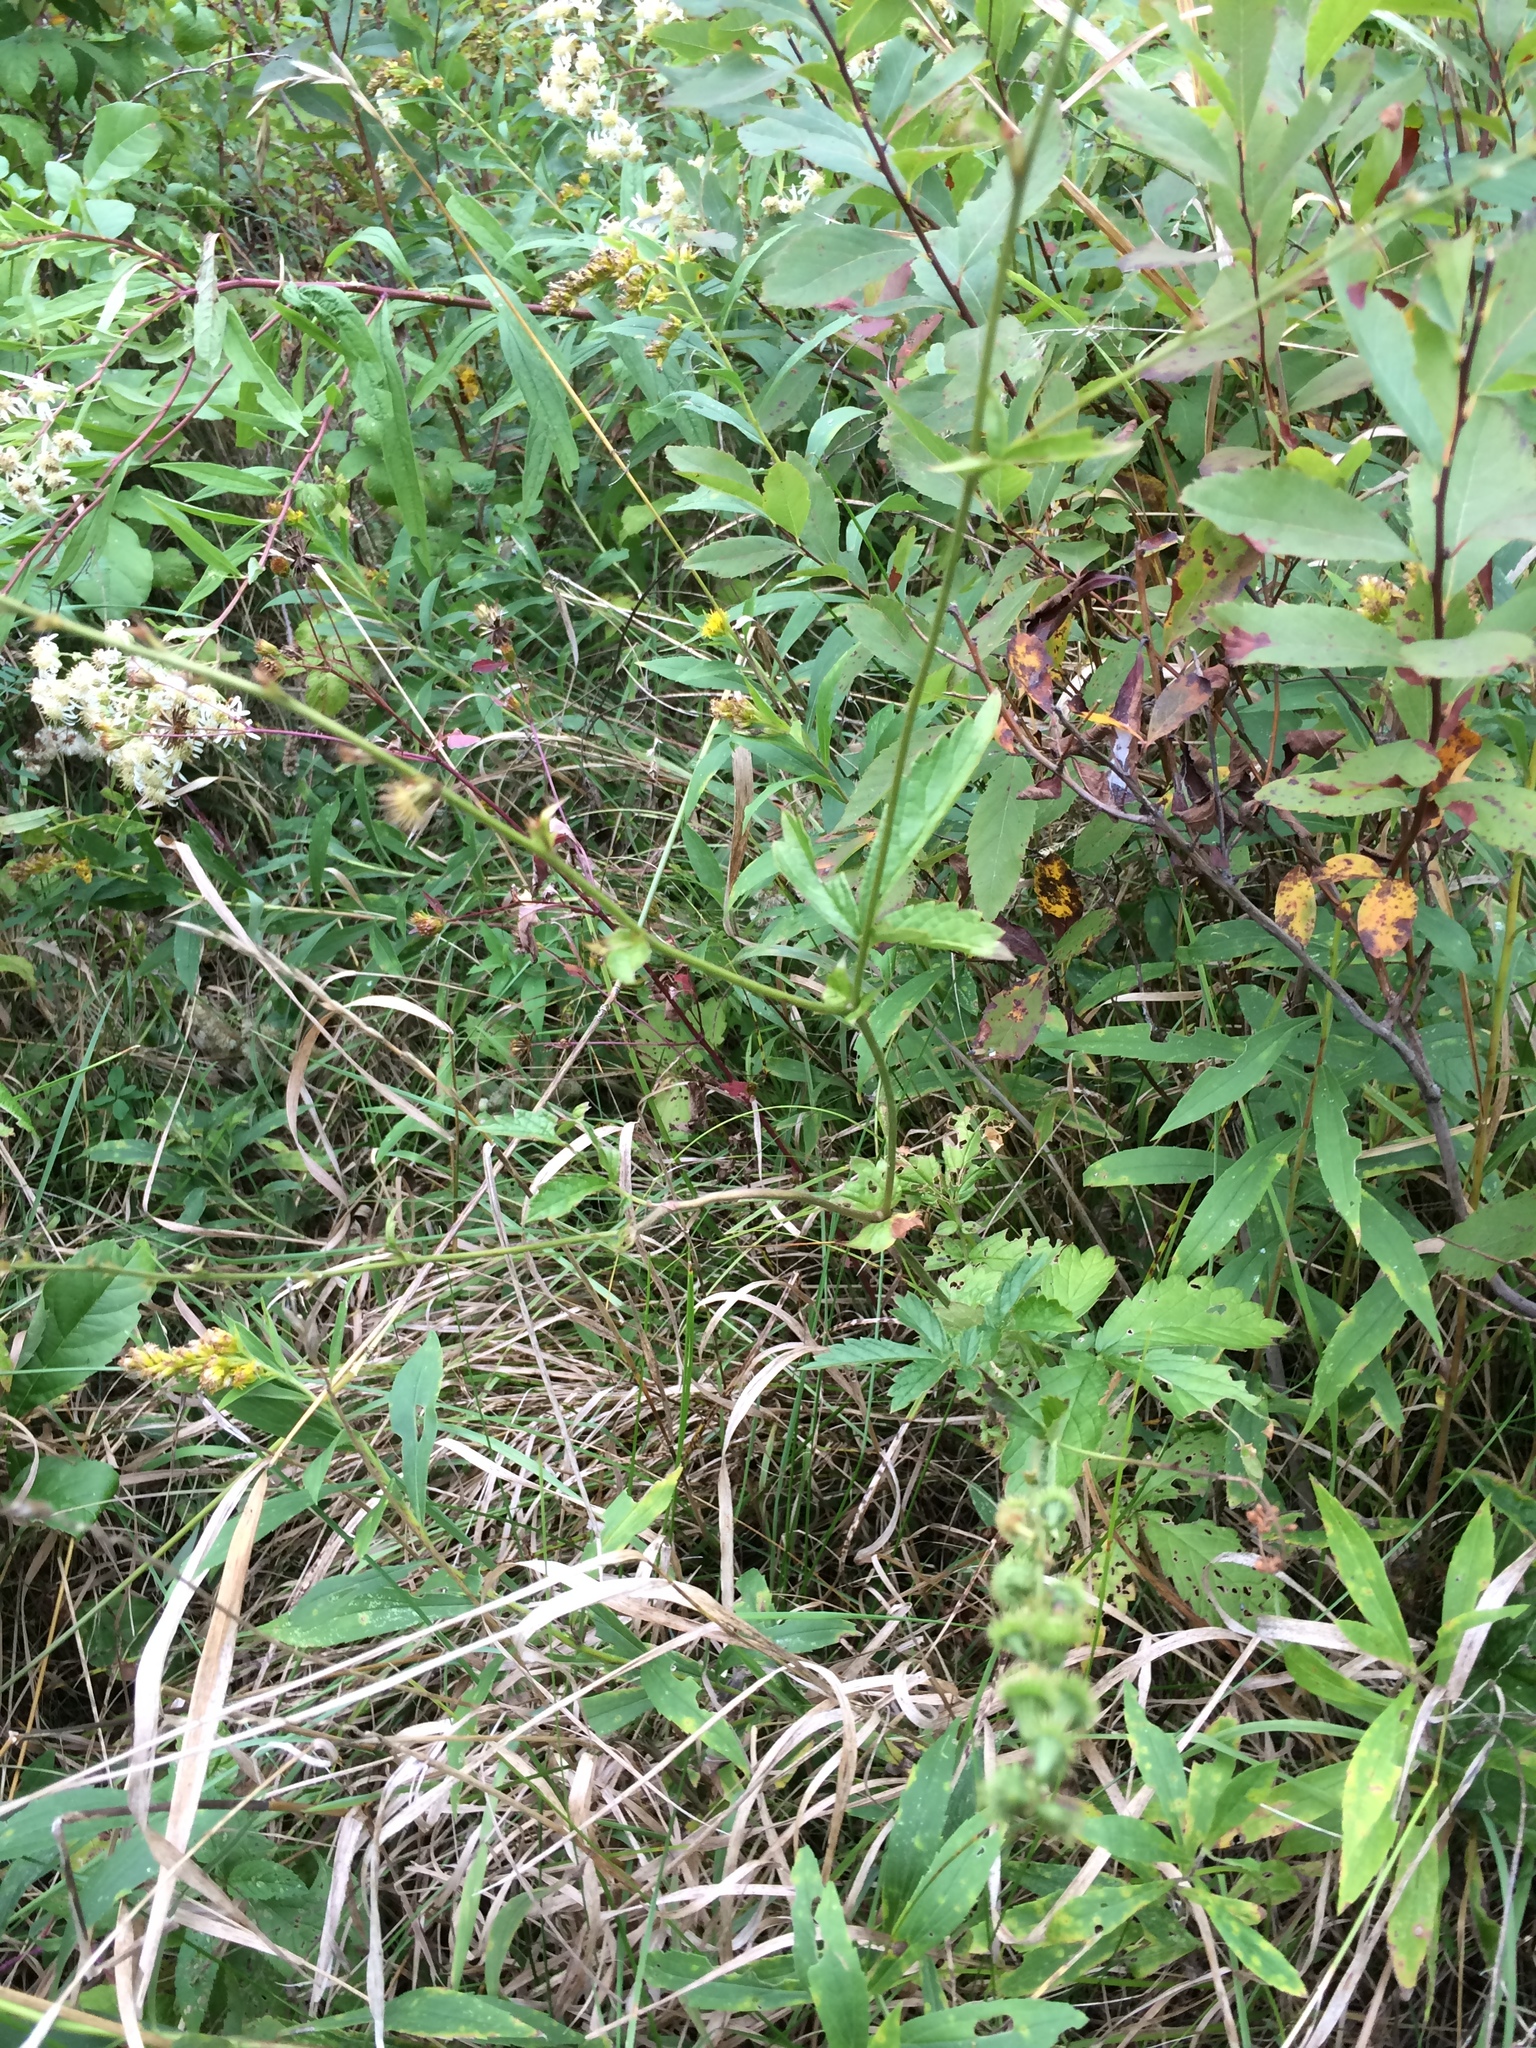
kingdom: Plantae
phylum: Tracheophyta
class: Magnoliopsida
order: Rosales
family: Rosaceae
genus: Agrimonia
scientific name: Agrimonia gryposepala
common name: Common agrimony
